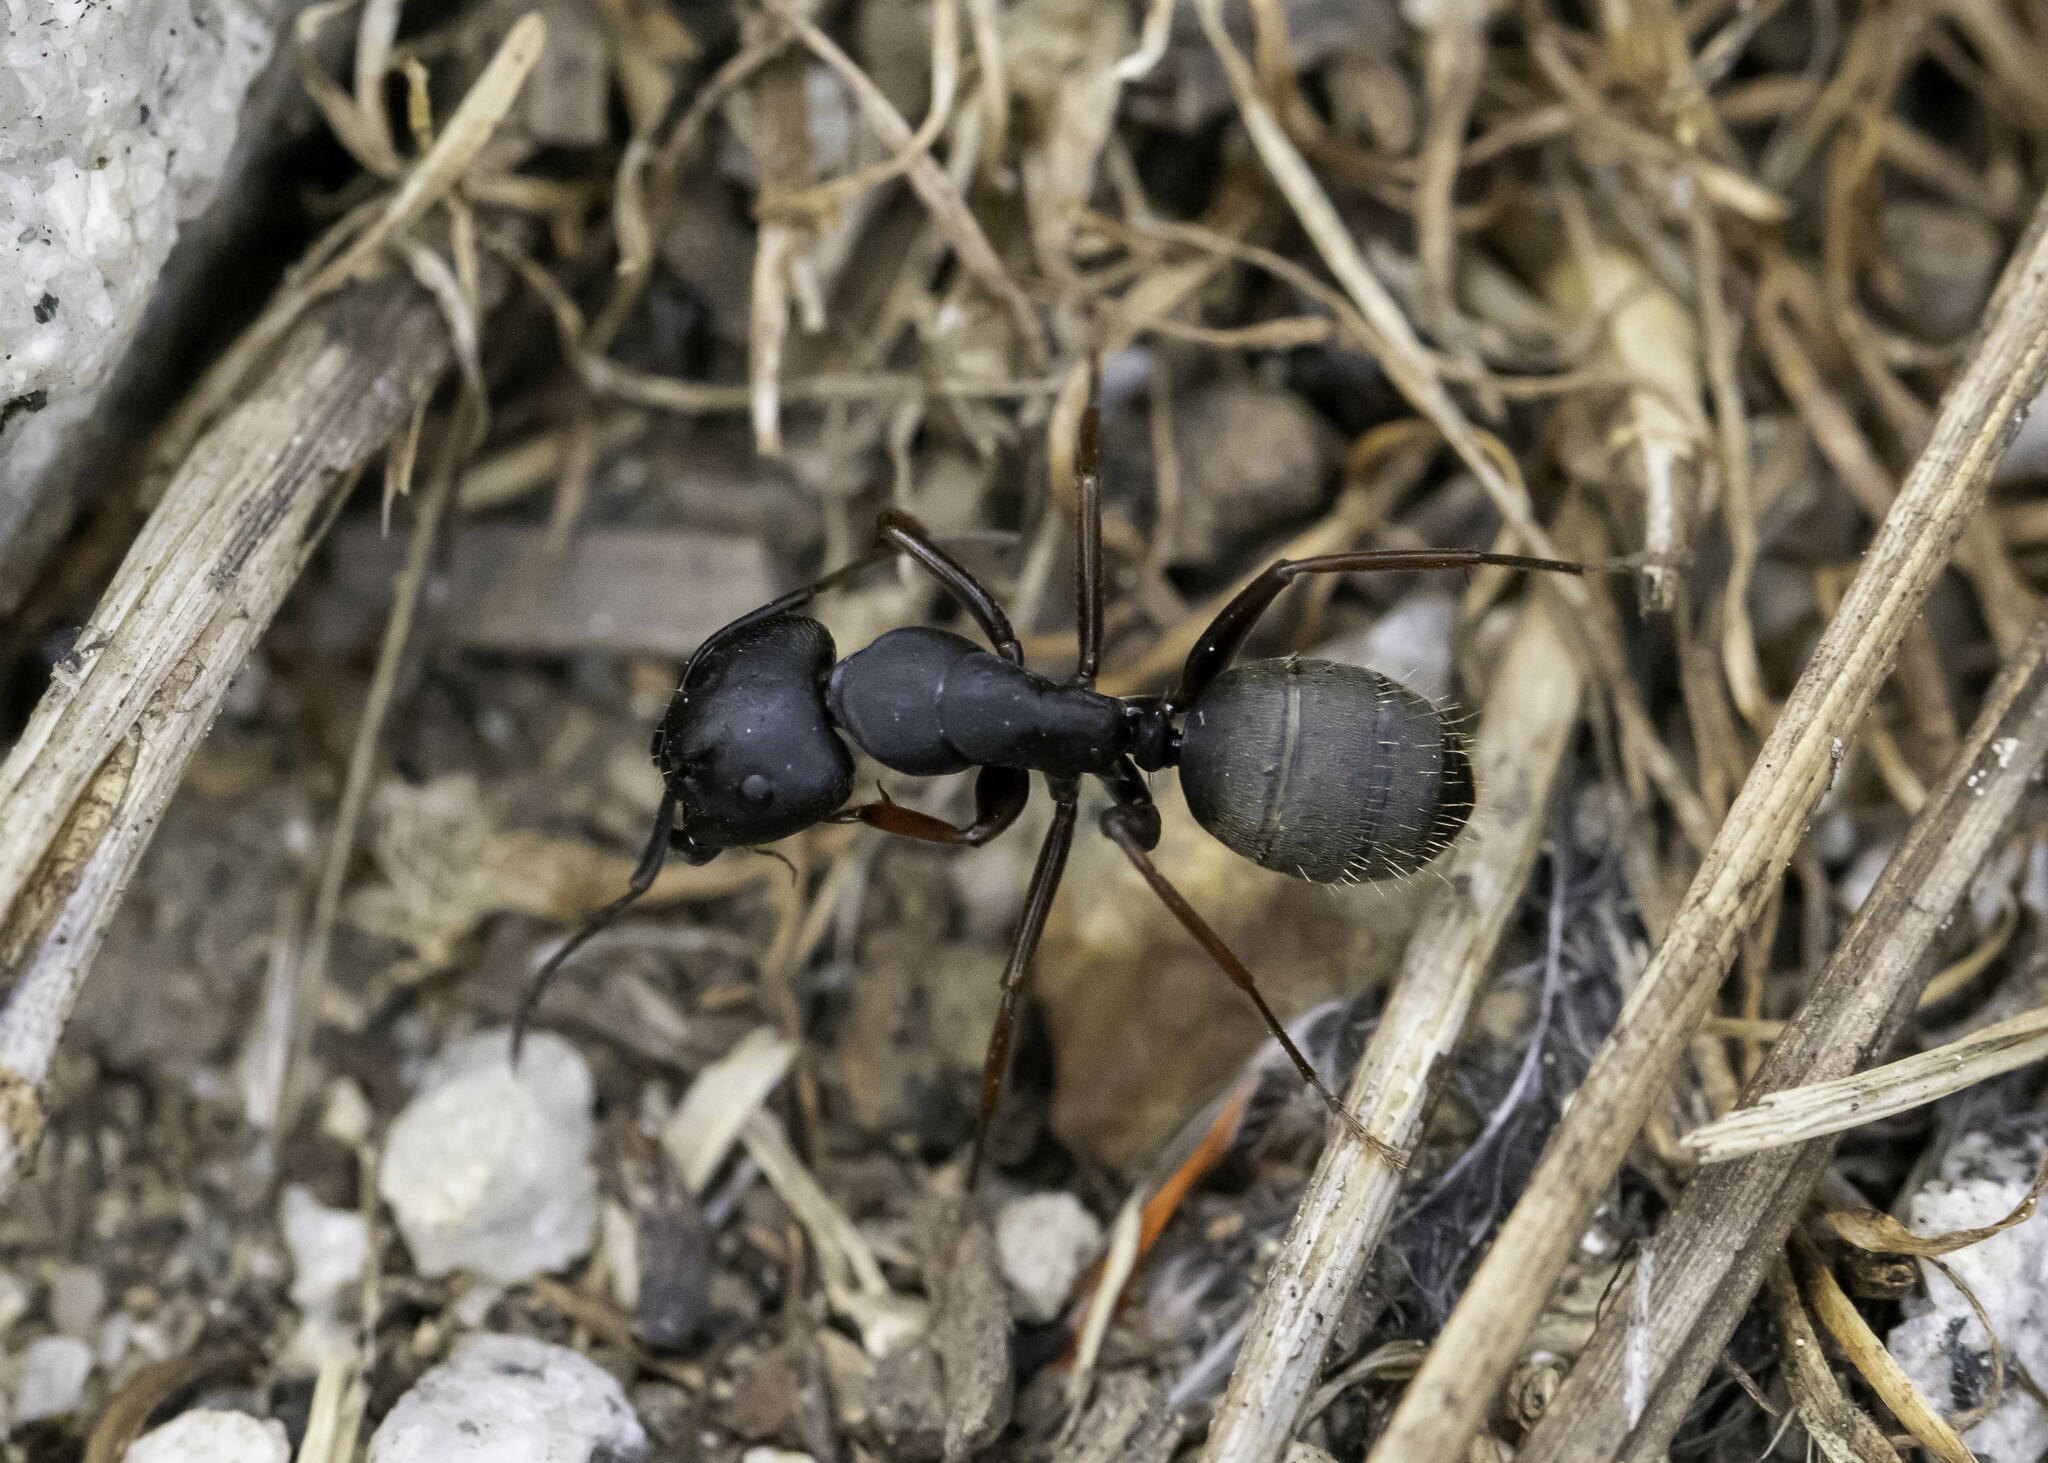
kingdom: Animalia
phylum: Arthropoda
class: Insecta
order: Hymenoptera
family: Formicidae
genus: Camponotus
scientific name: Camponotus modoc
